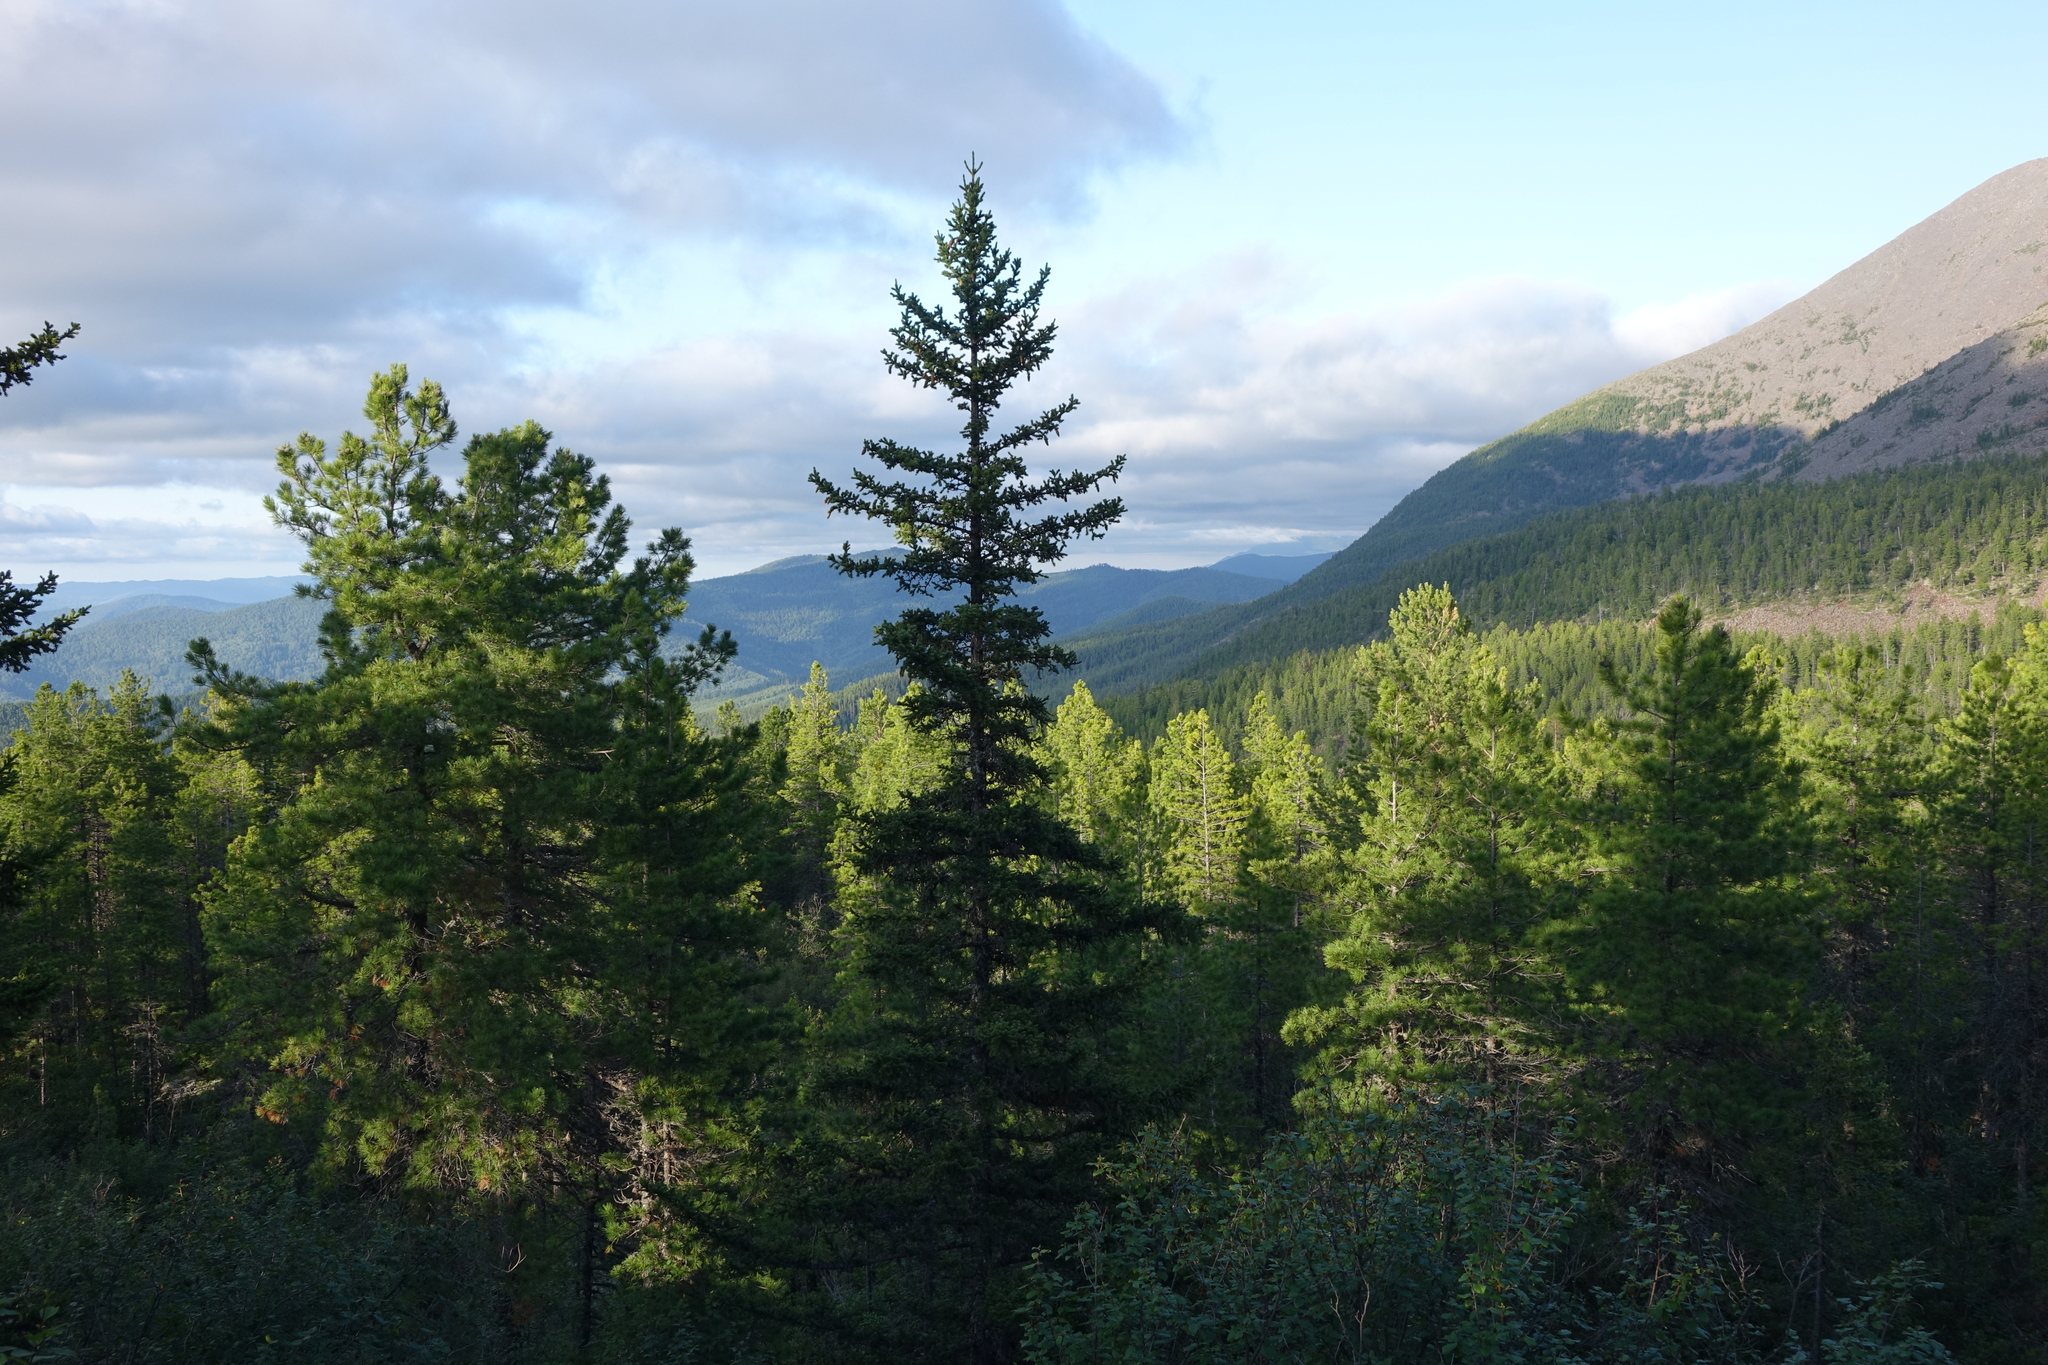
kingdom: Plantae
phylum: Tracheophyta
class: Pinopsida
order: Pinales
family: Pinaceae
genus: Picea
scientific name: Picea obovata
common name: Siberian spruce
